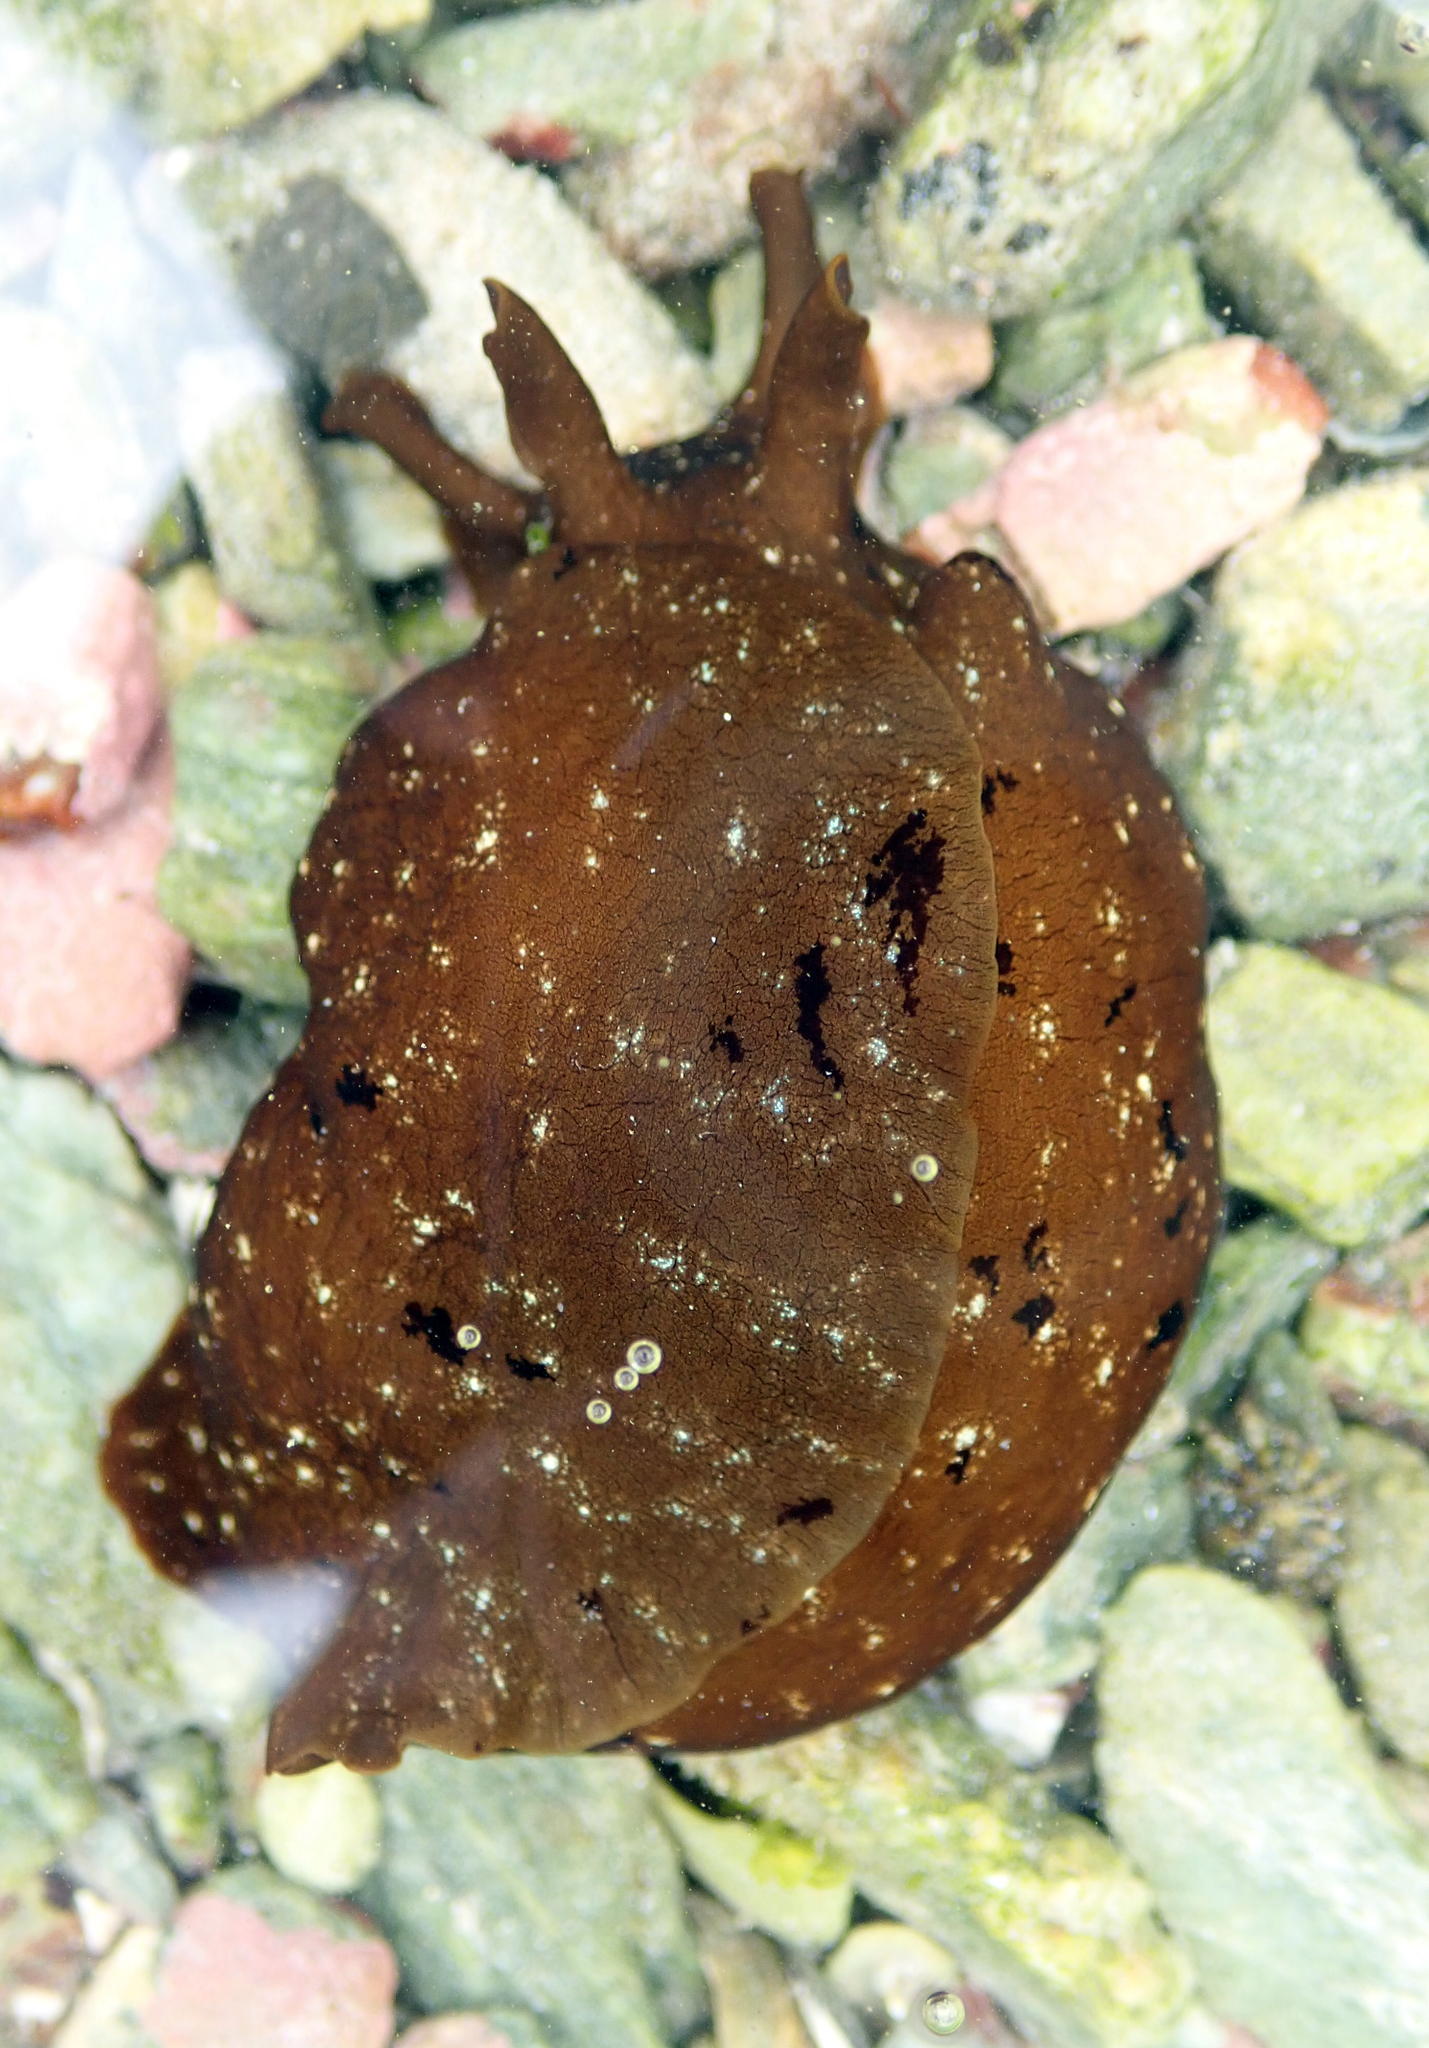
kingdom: Animalia
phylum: Mollusca
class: Gastropoda
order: Aplysiida
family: Aplysiidae
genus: Aplysia
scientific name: Aplysia juliana
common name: Walking sea hare
